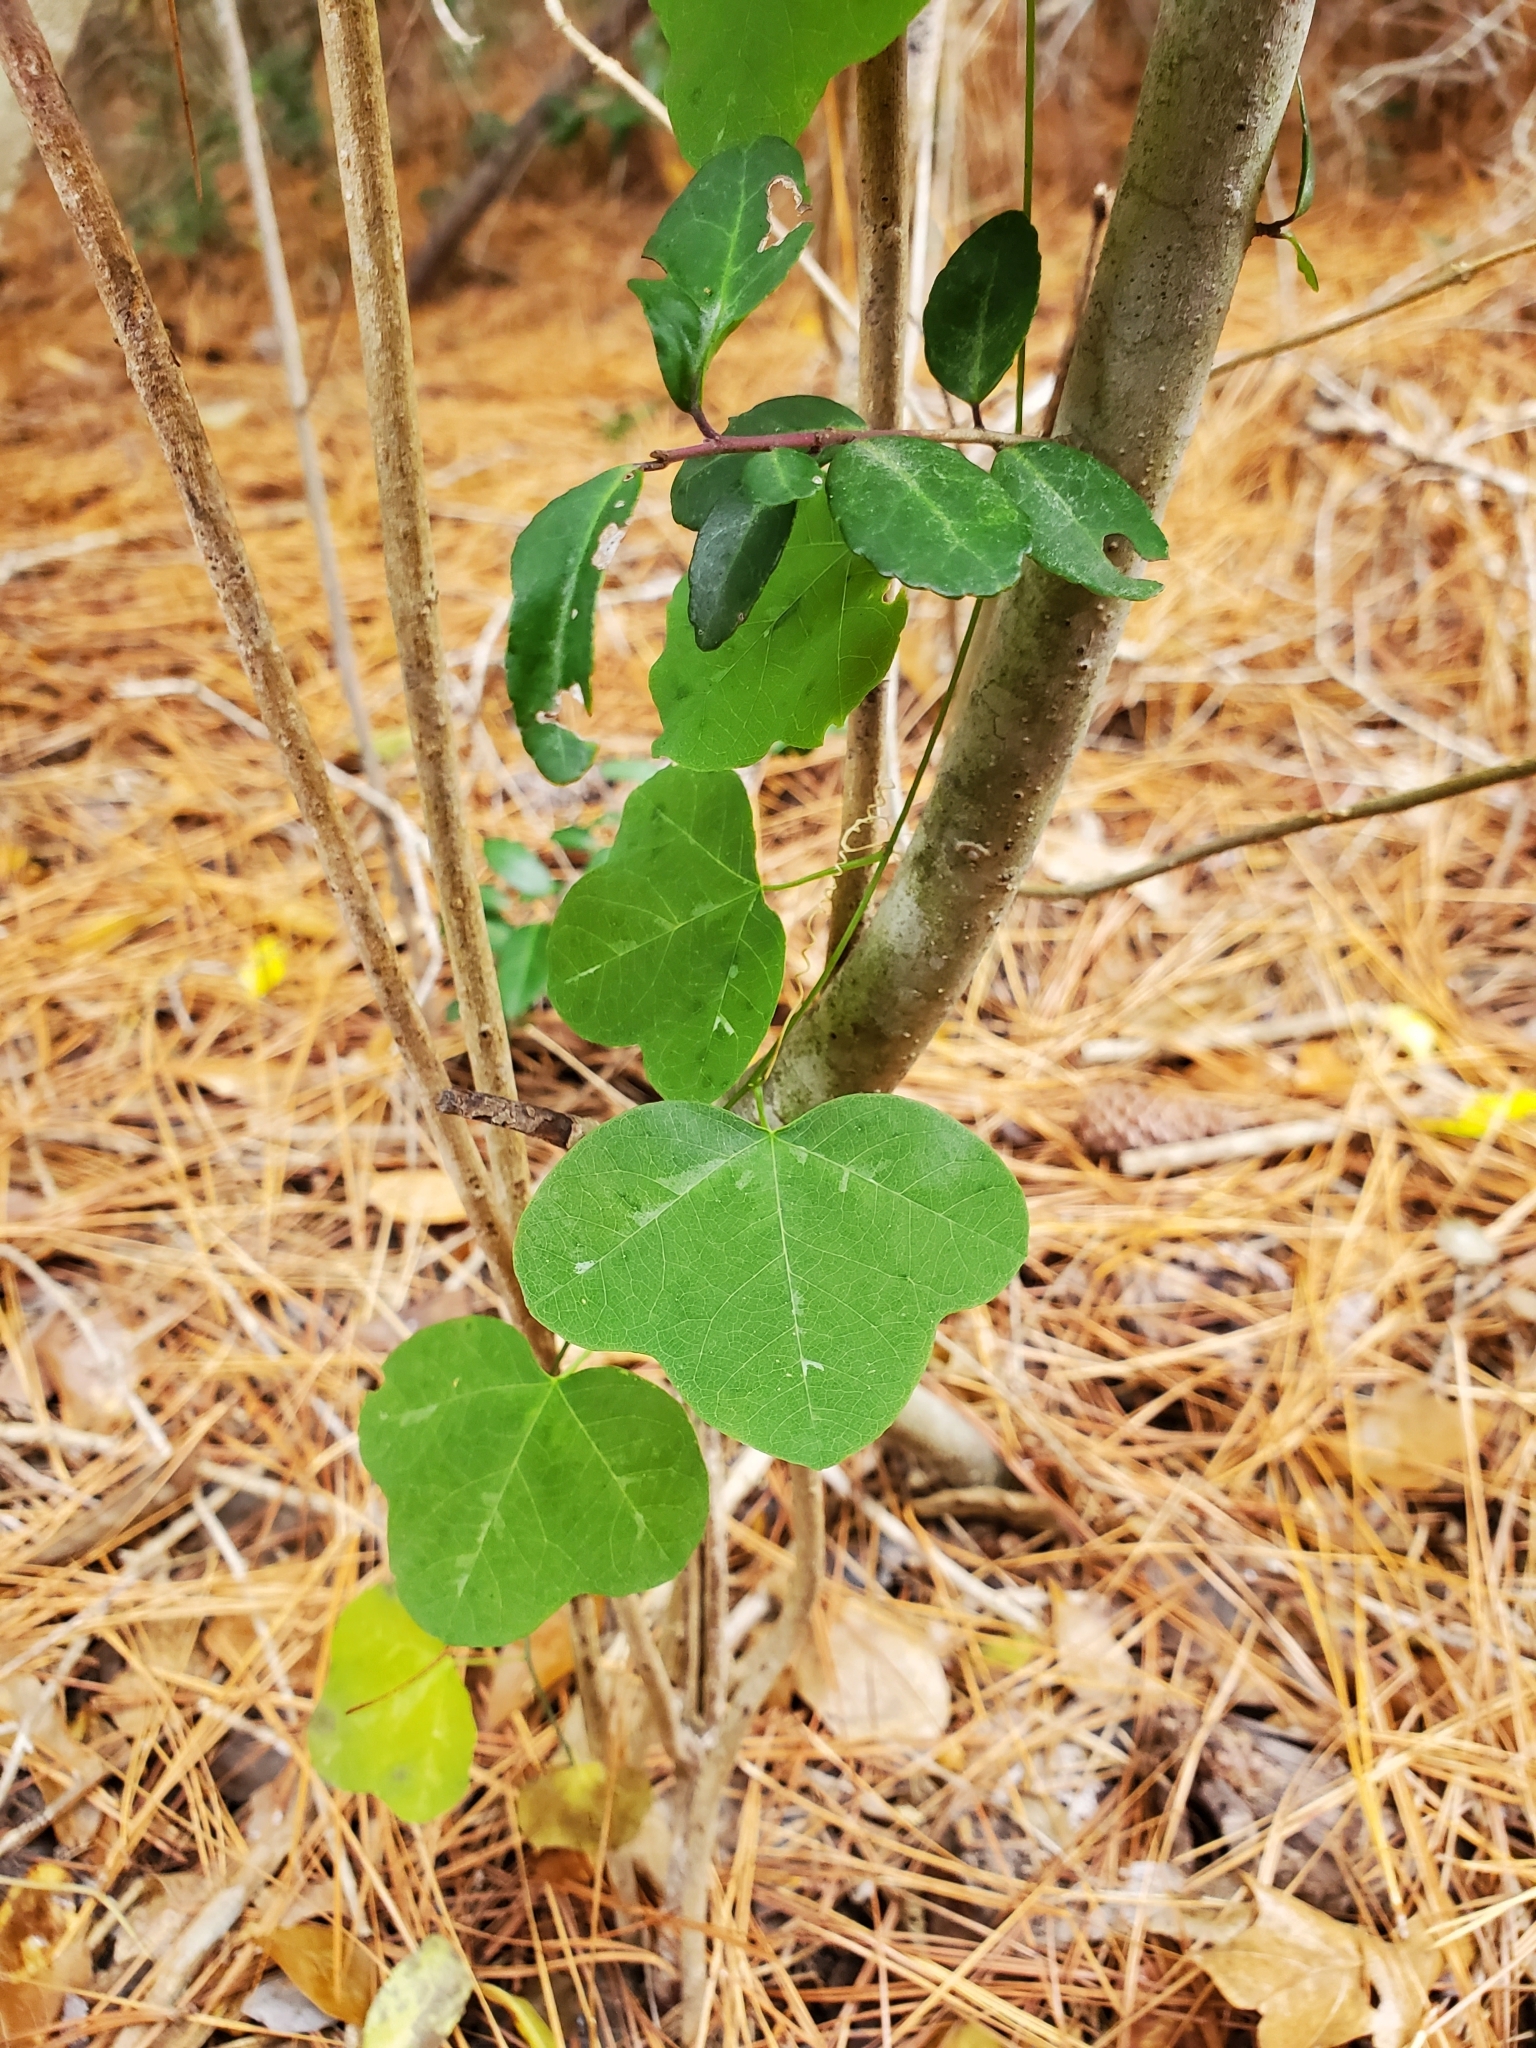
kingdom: Plantae
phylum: Tracheophyta
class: Magnoliopsida
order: Malpighiales
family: Passifloraceae
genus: Passiflora
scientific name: Passiflora lutea
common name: Yellow passionflower
